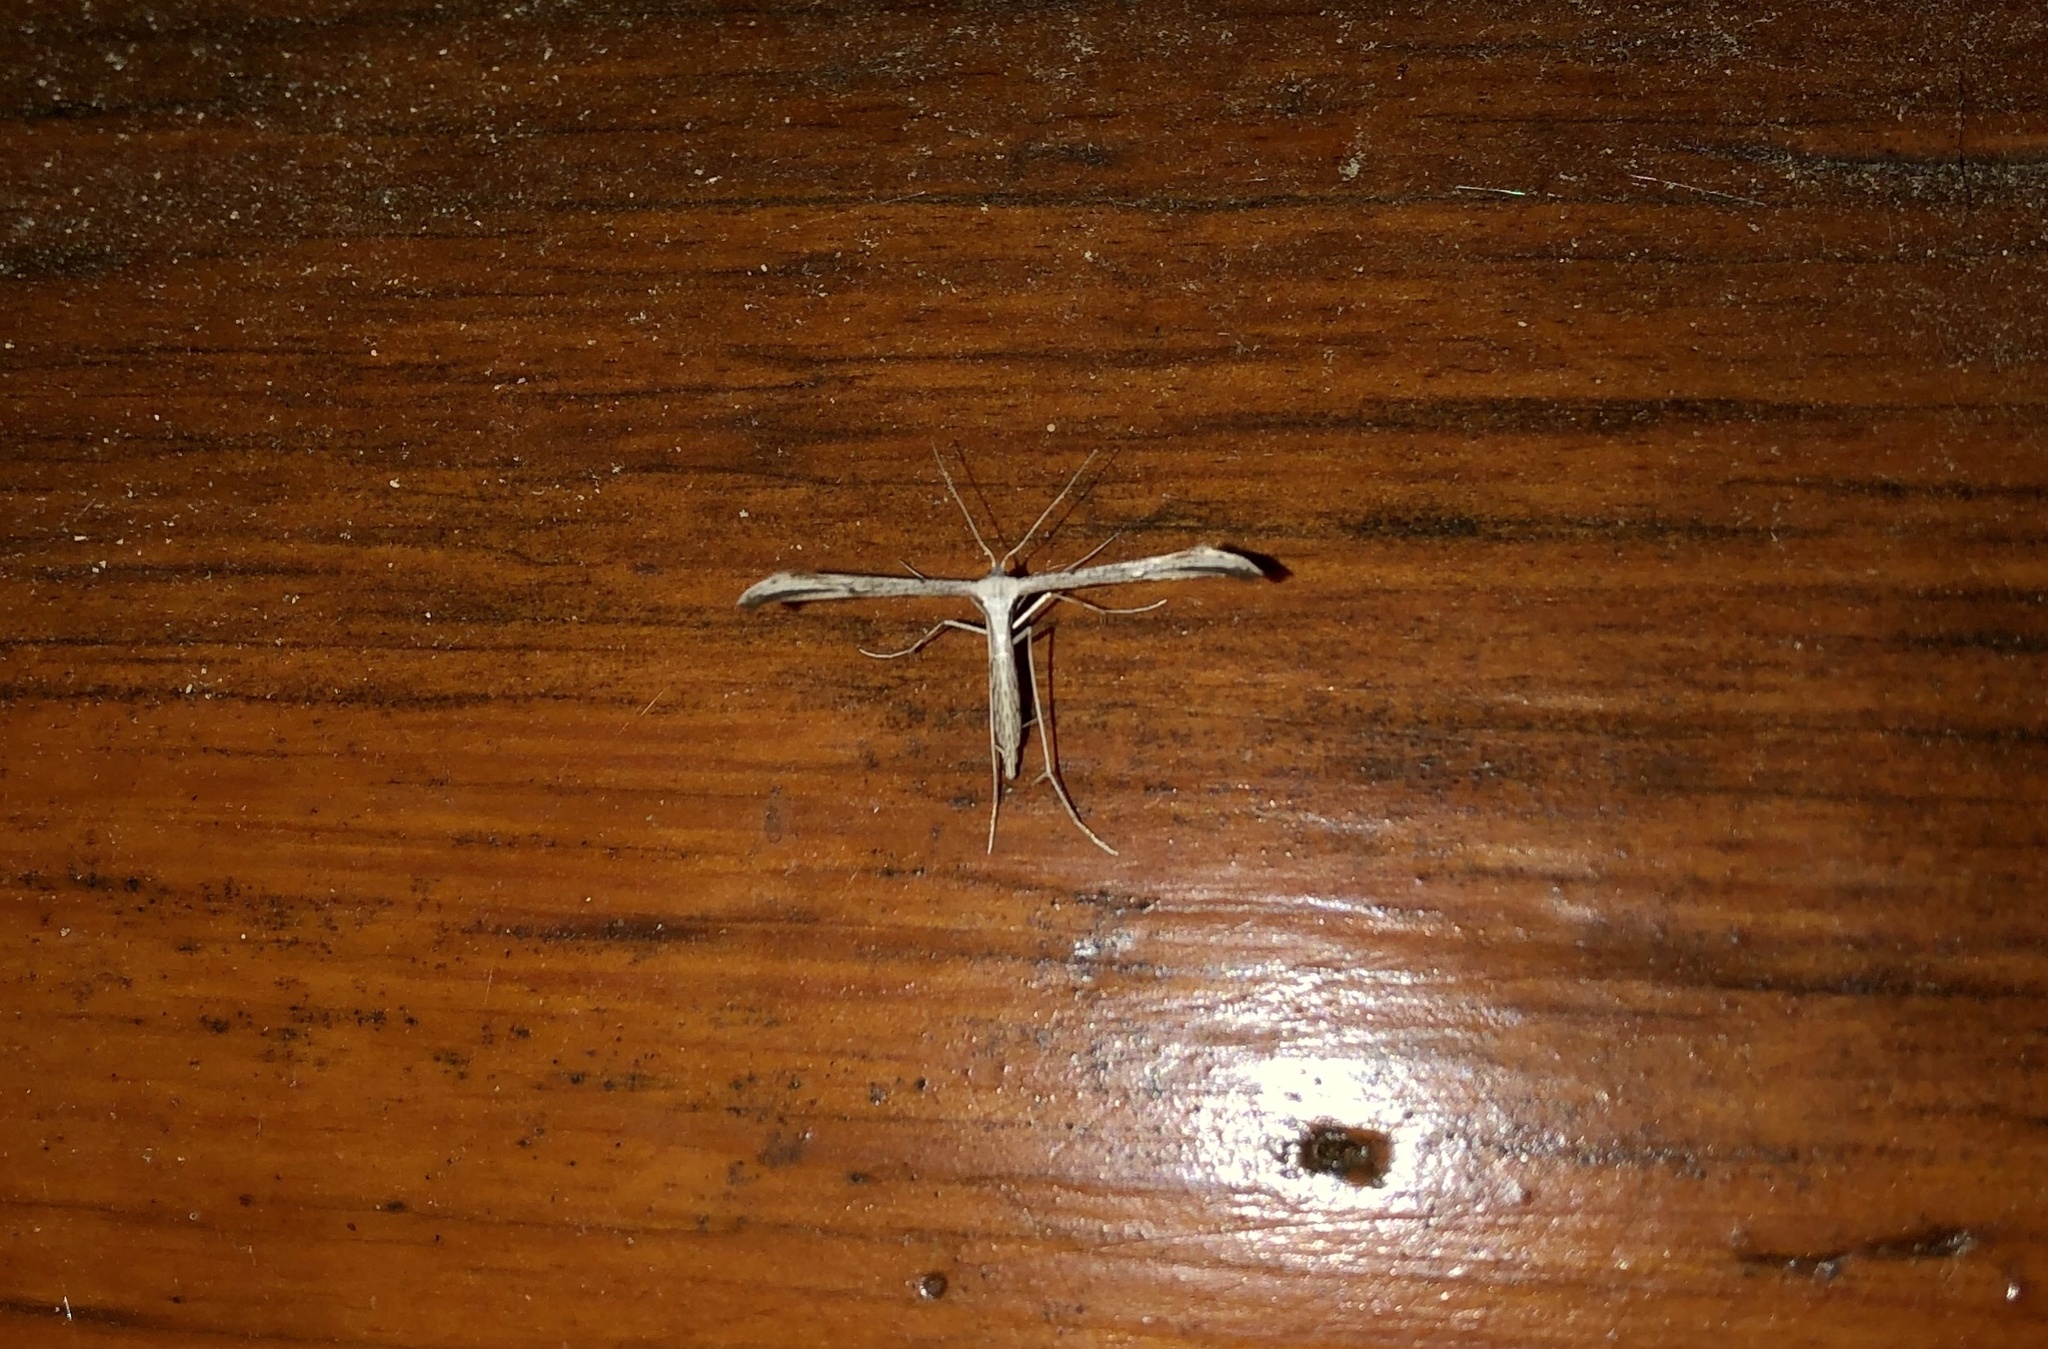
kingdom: Animalia
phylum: Arthropoda
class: Insecta
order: Lepidoptera
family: Pterophoridae
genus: Emmelina
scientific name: Emmelina monodactyla
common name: Common plume
